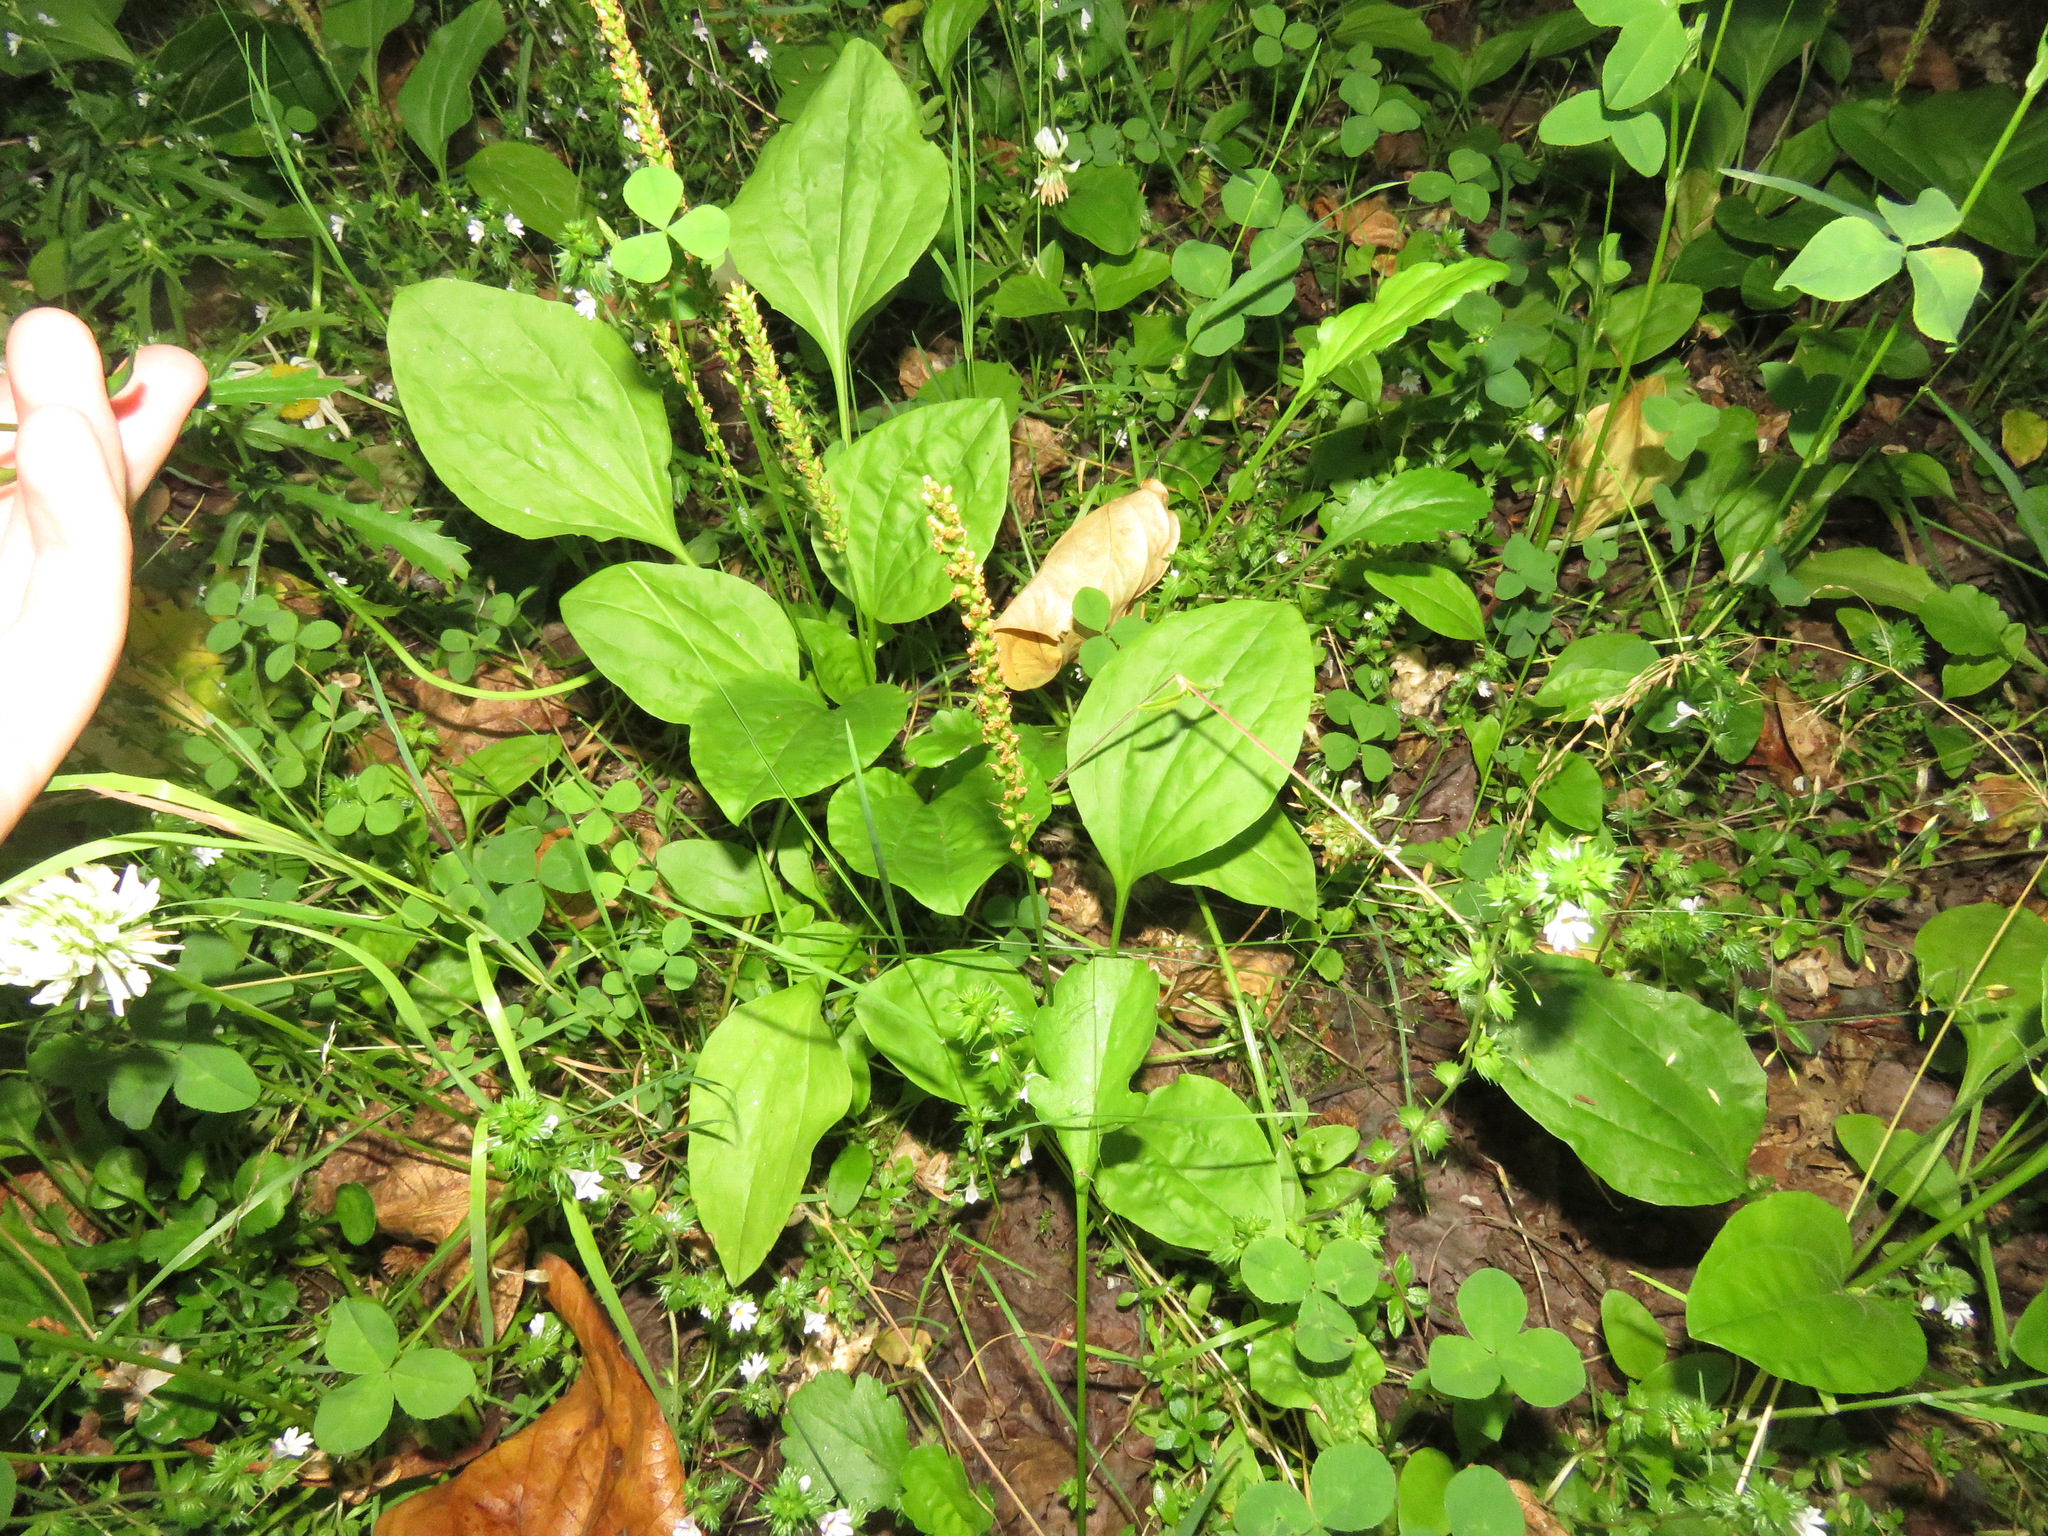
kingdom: Plantae
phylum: Tracheophyta
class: Magnoliopsida
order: Lamiales
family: Plantaginaceae
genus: Plantago
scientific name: Plantago major
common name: Common plantain
